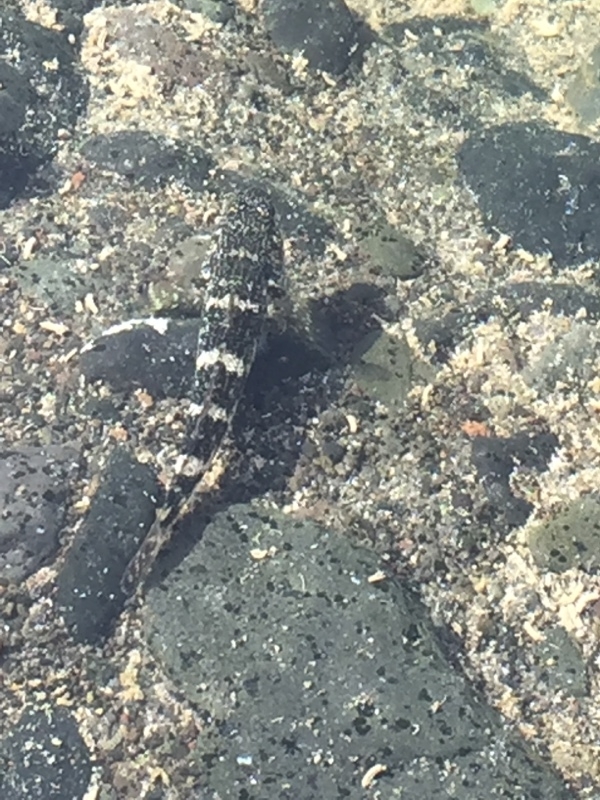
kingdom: Animalia
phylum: Chordata
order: Perciformes
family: Gobiidae
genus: Mauligobius
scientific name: Mauligobius maderensis
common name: Rock goby
